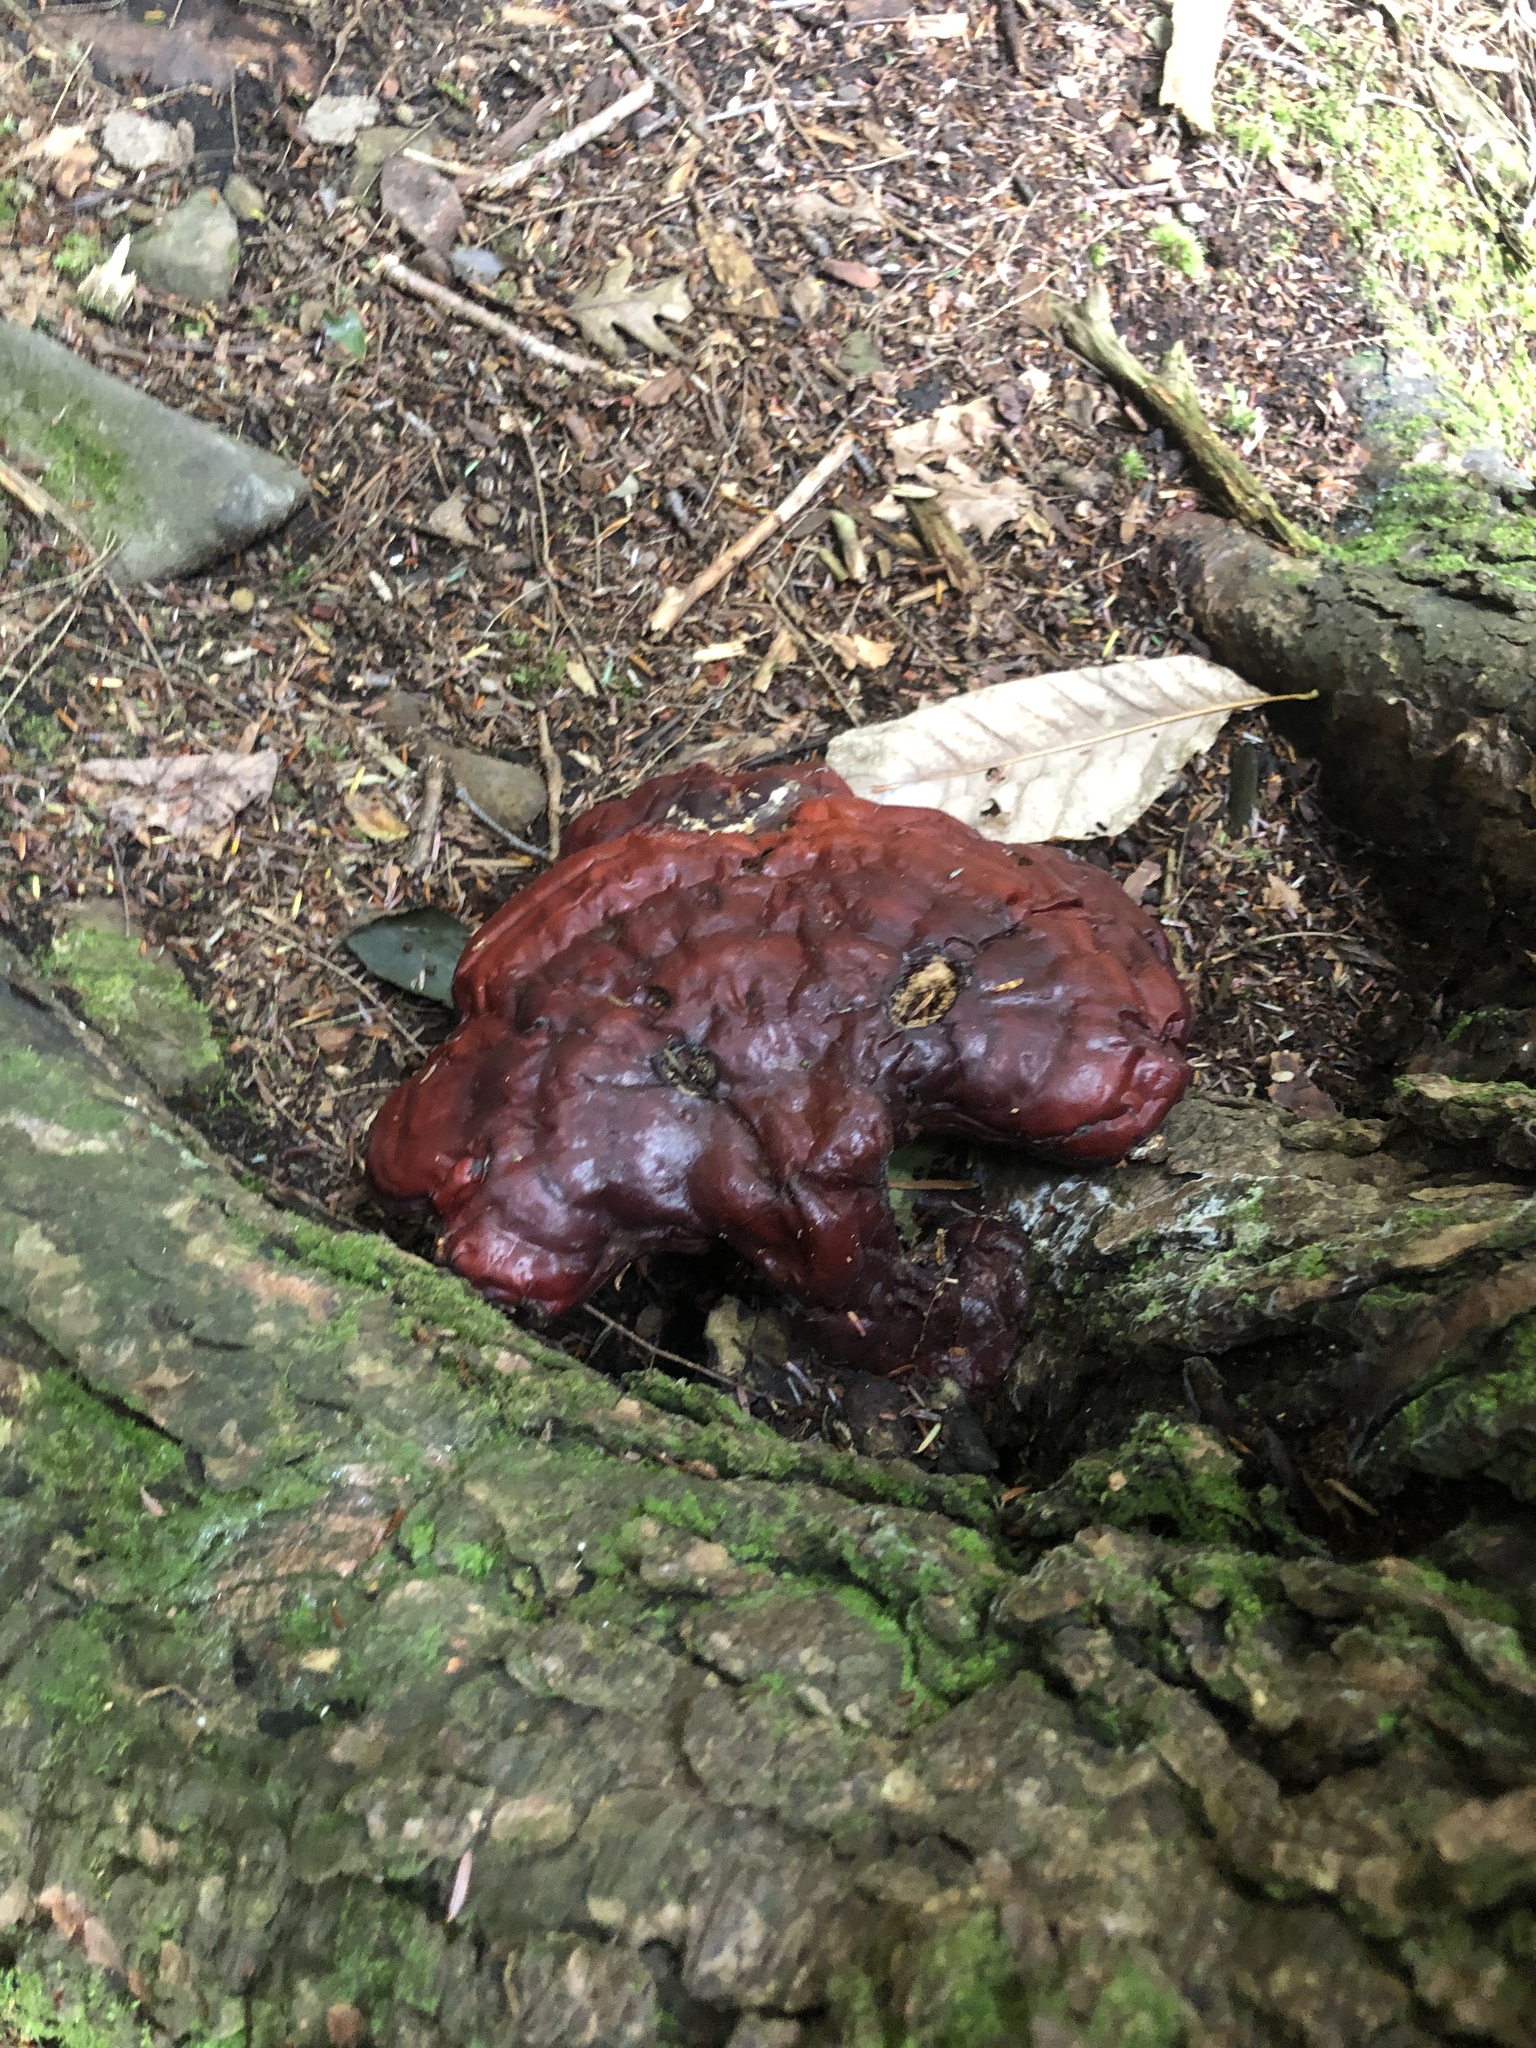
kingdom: Fungi
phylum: Basidiomycota
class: Agaricomycetes
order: Polyporales
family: Polyporaceae
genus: Ganoderma
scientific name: Ganoderma tsugae
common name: Hemlock varnish shelf
